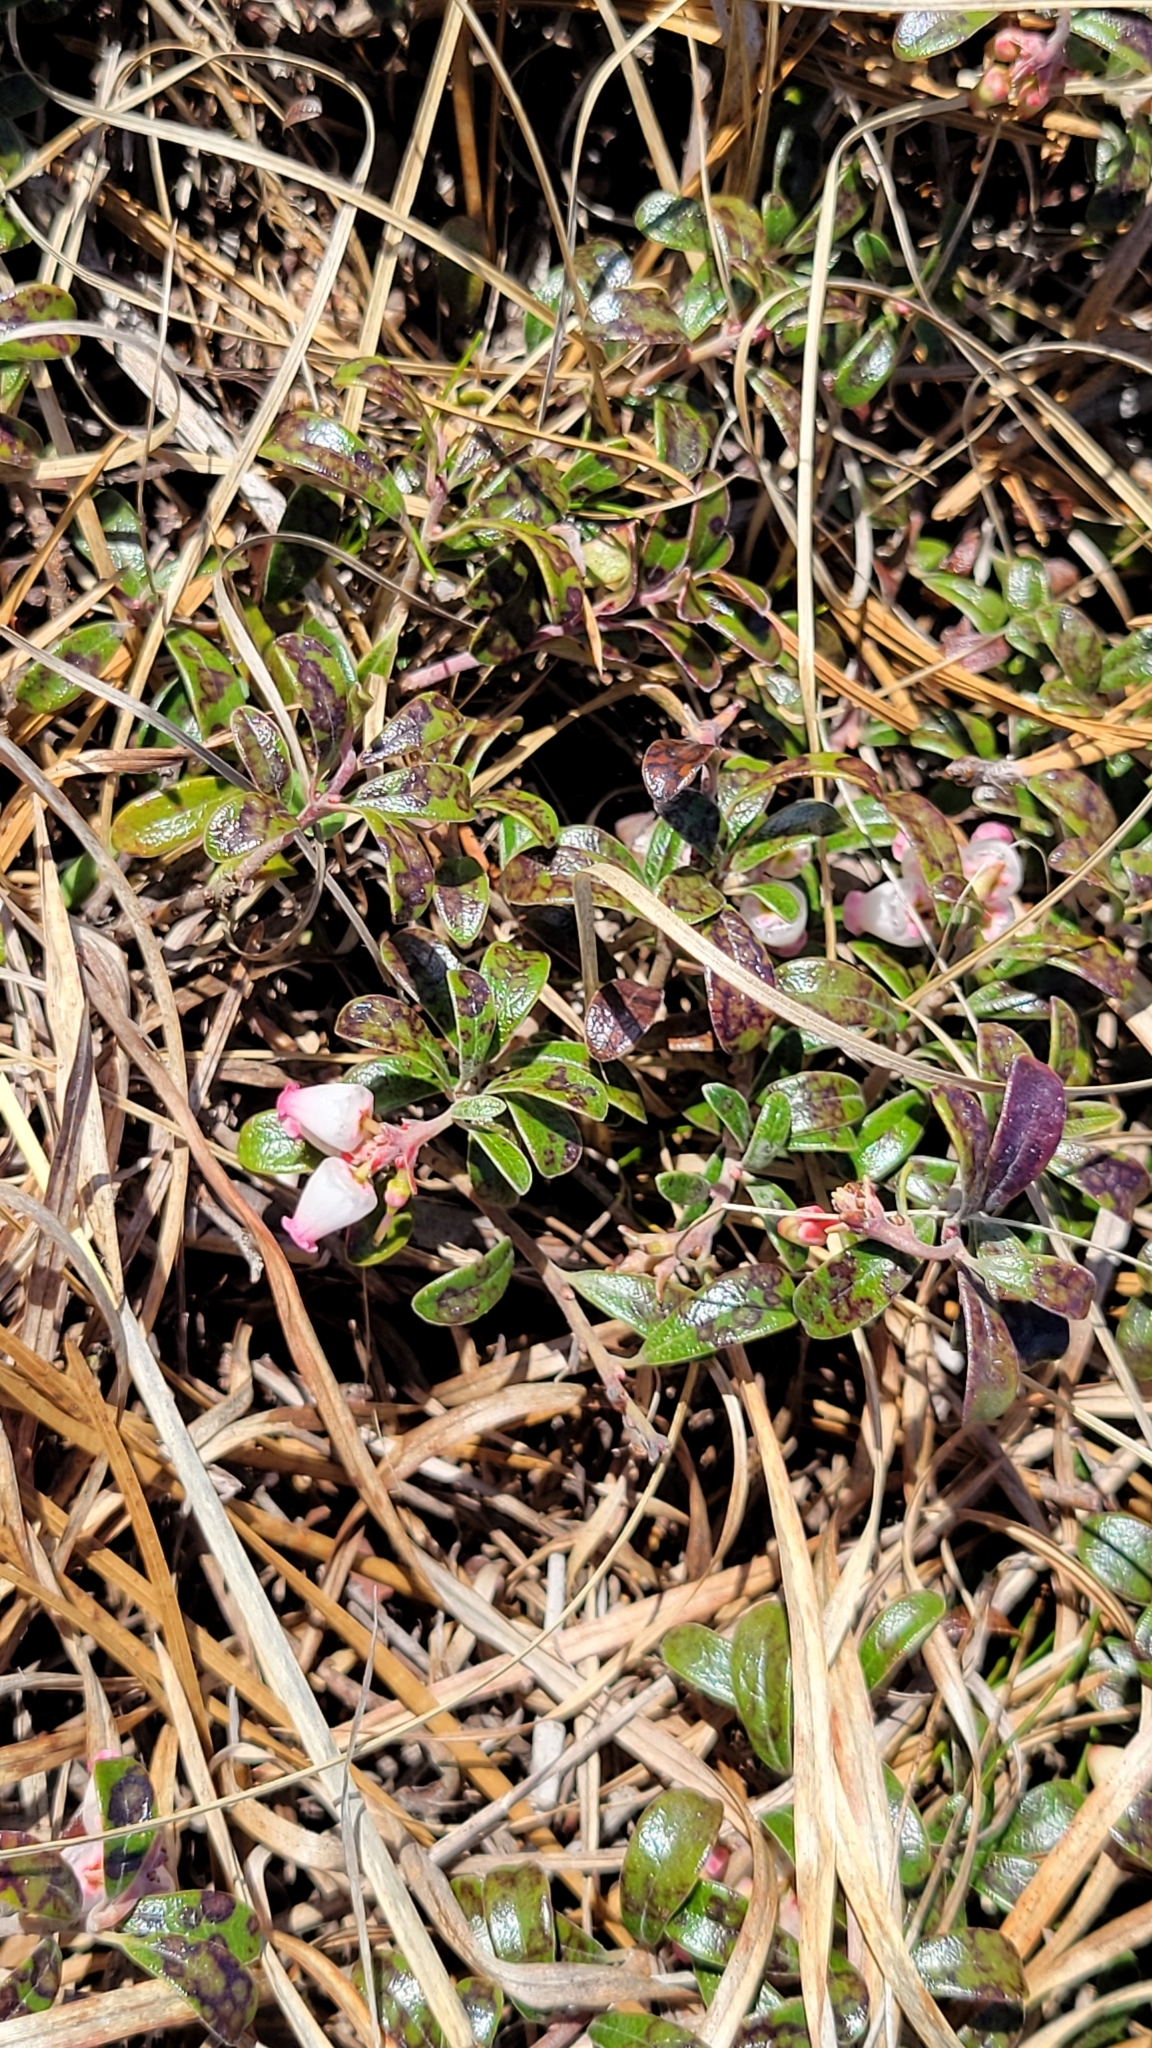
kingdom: Plantae
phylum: Tracheophyta
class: Magnoliopsida
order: Ericales
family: Ericaceae
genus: Arctostaphylos
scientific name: Arctostaphylos uva-ursi
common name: Bearberry
